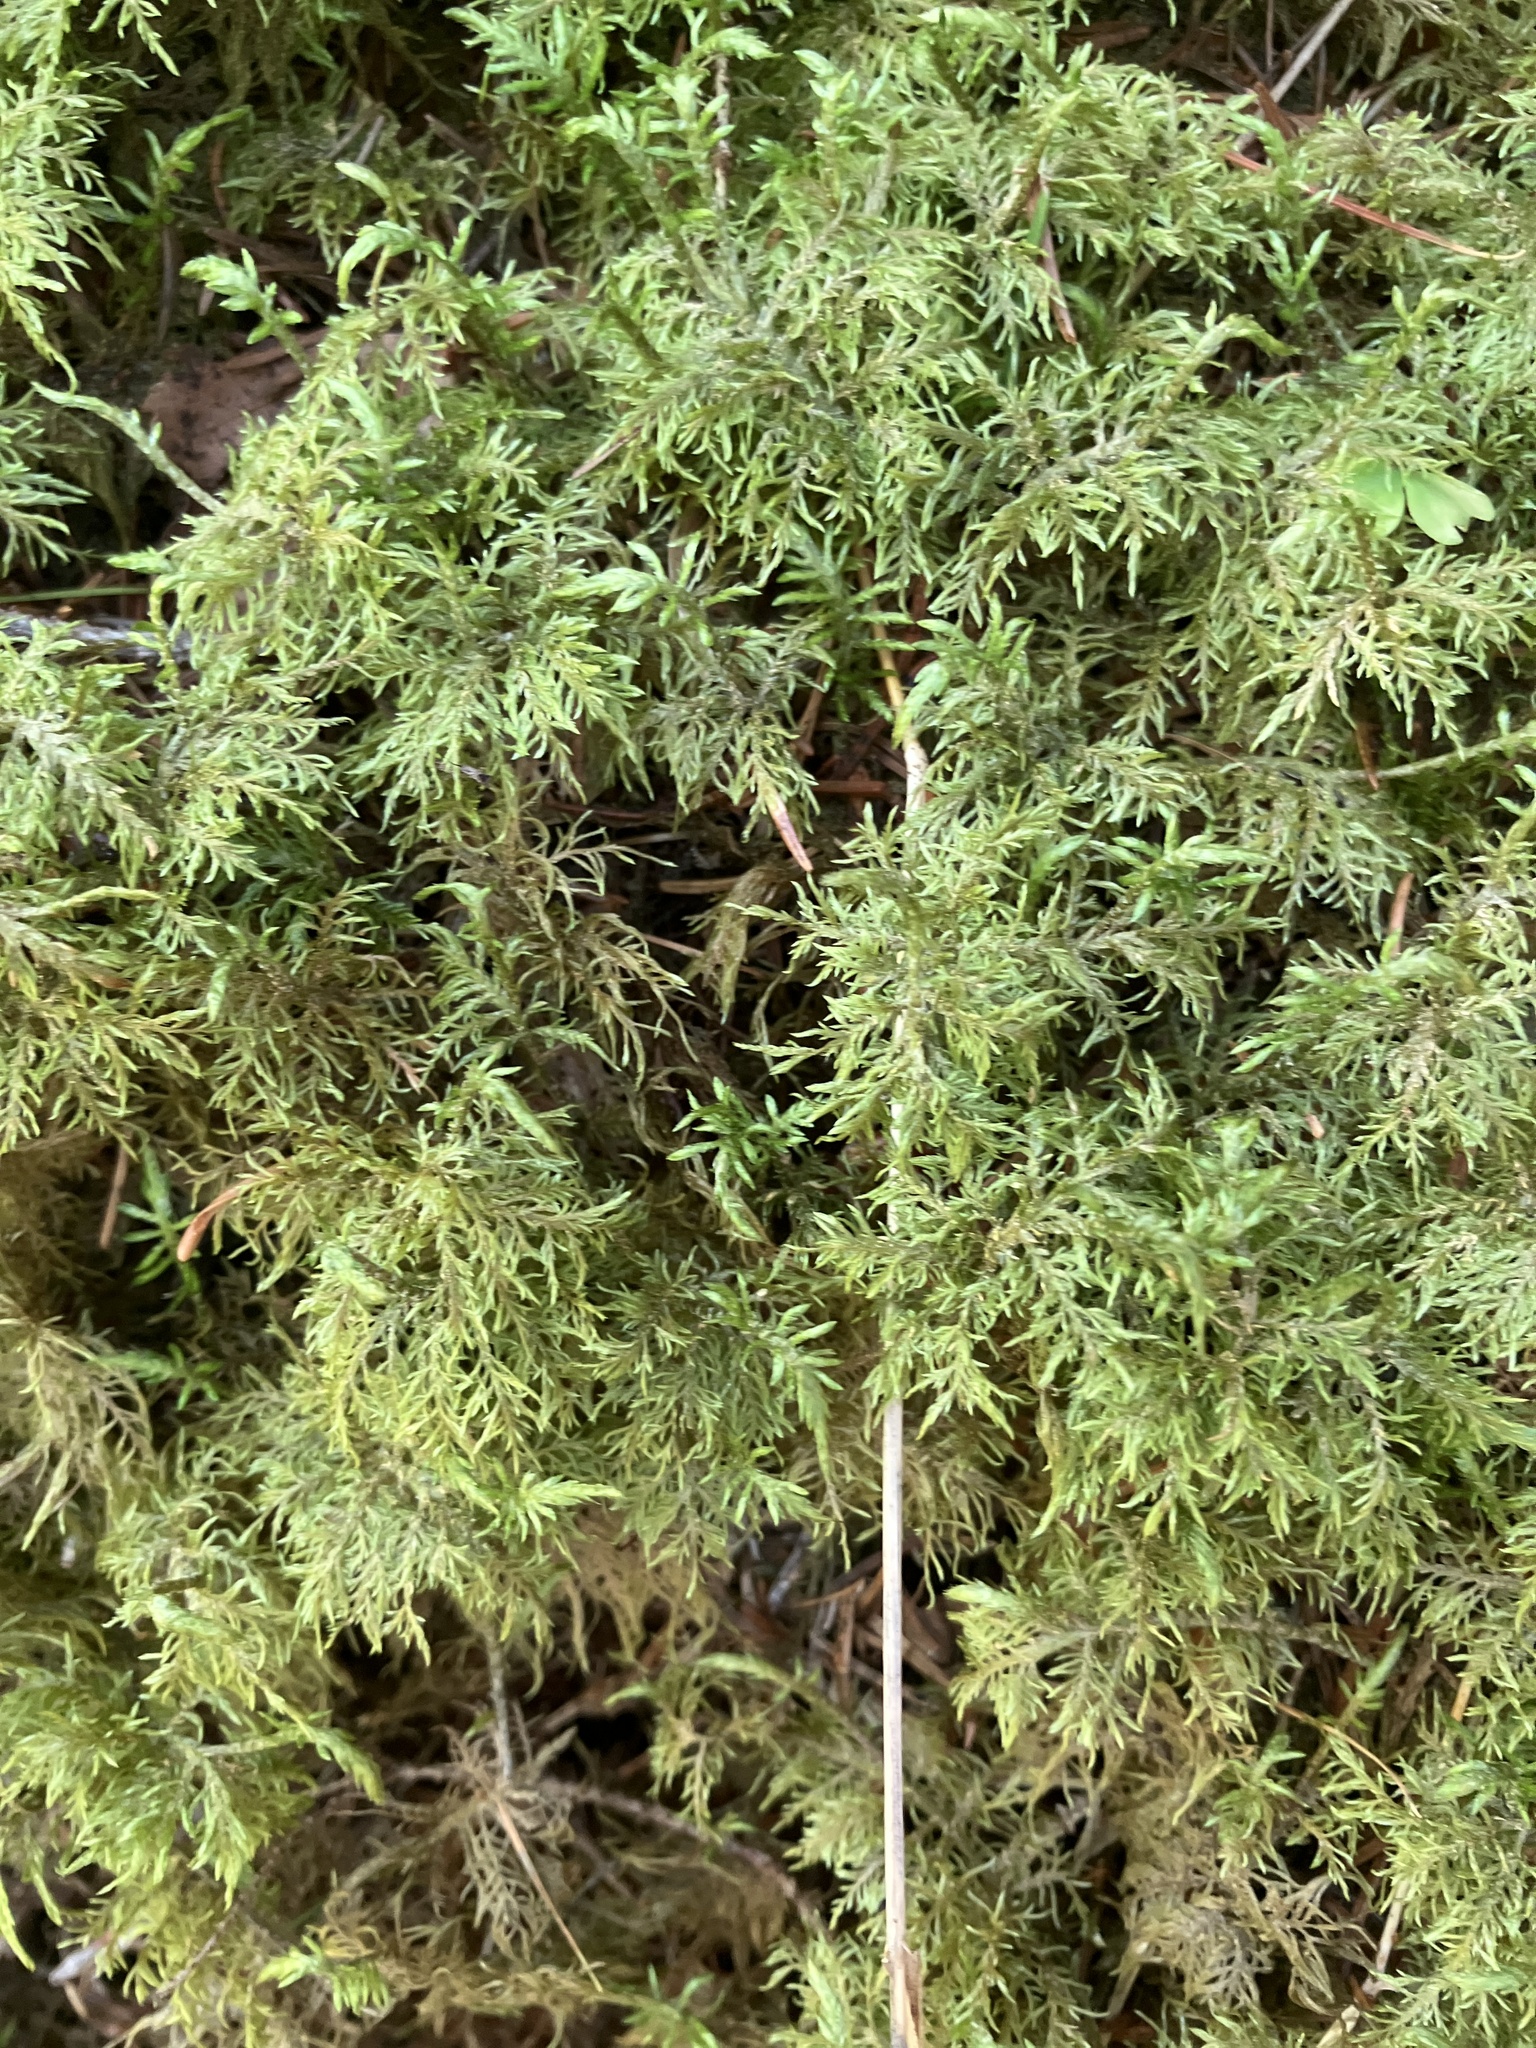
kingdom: Plantae
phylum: Bryophyta
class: Bryopsida
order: Hypnales
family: Hylocomiaceae
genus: Hylocomium
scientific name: Hylocomium splendens
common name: Stairstep moss
